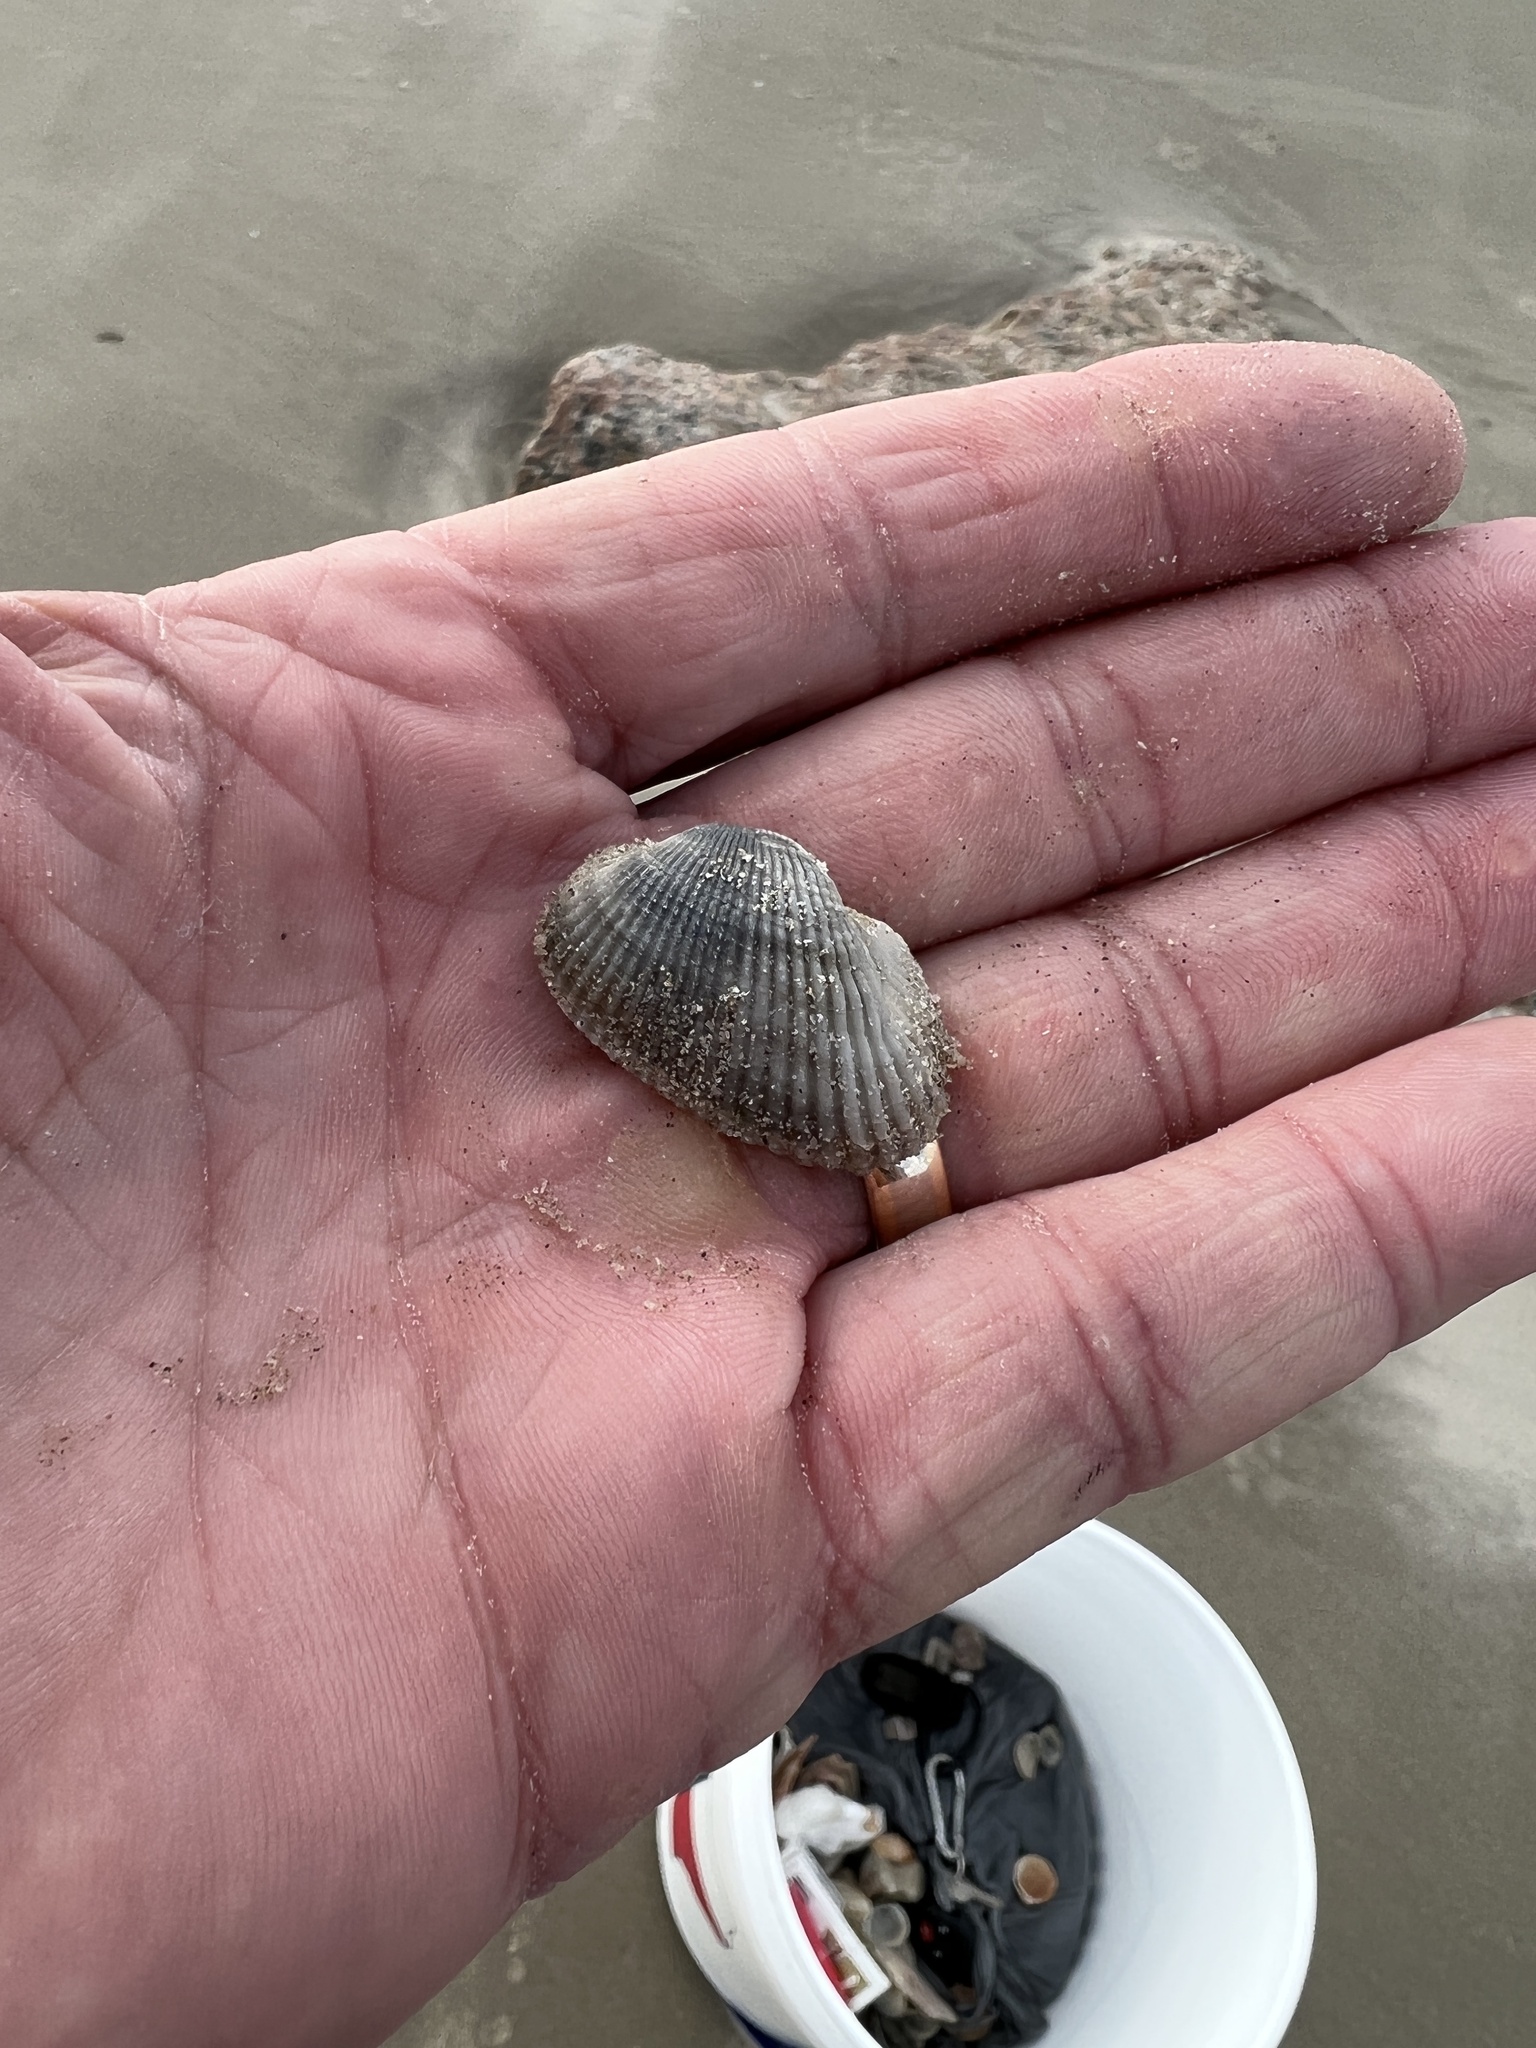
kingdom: Animalia
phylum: Mollusca
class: Bivalvia
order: Arcida
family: Arcidae
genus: Anadara
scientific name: Anadara transversa
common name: Transverse ark
